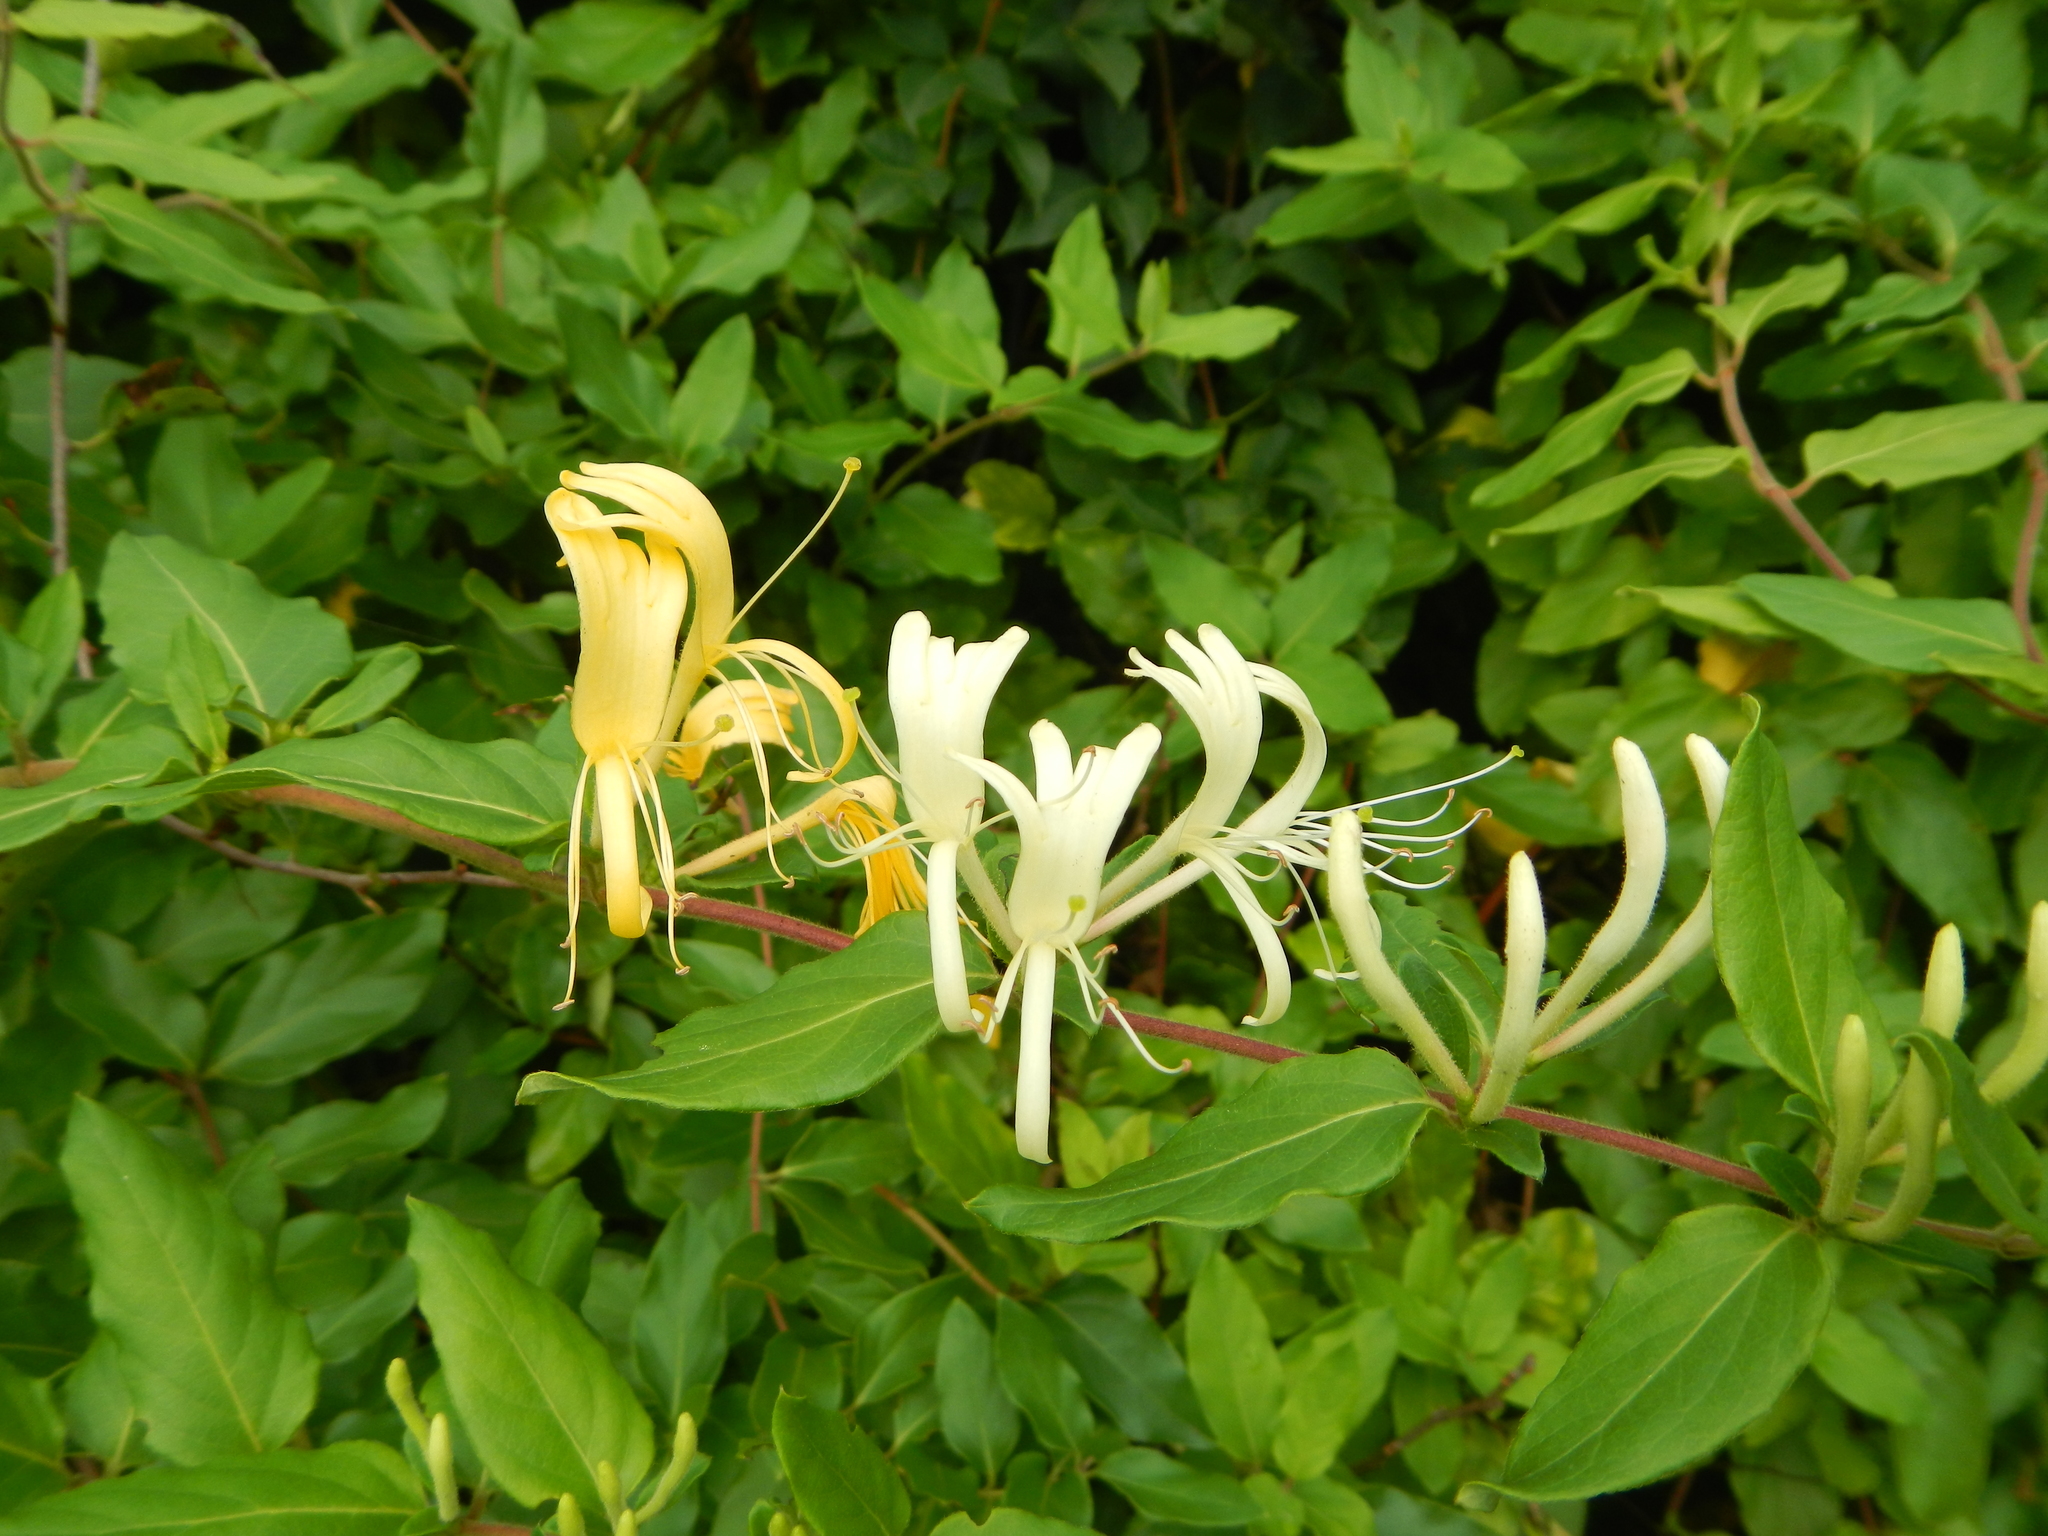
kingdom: Plantae
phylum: Tracheophyta
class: Magnoliopsida
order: Dipsacales
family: Caprifoliaceae
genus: Lonicera
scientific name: Lonicera japonica
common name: Japanese honeysuckle
